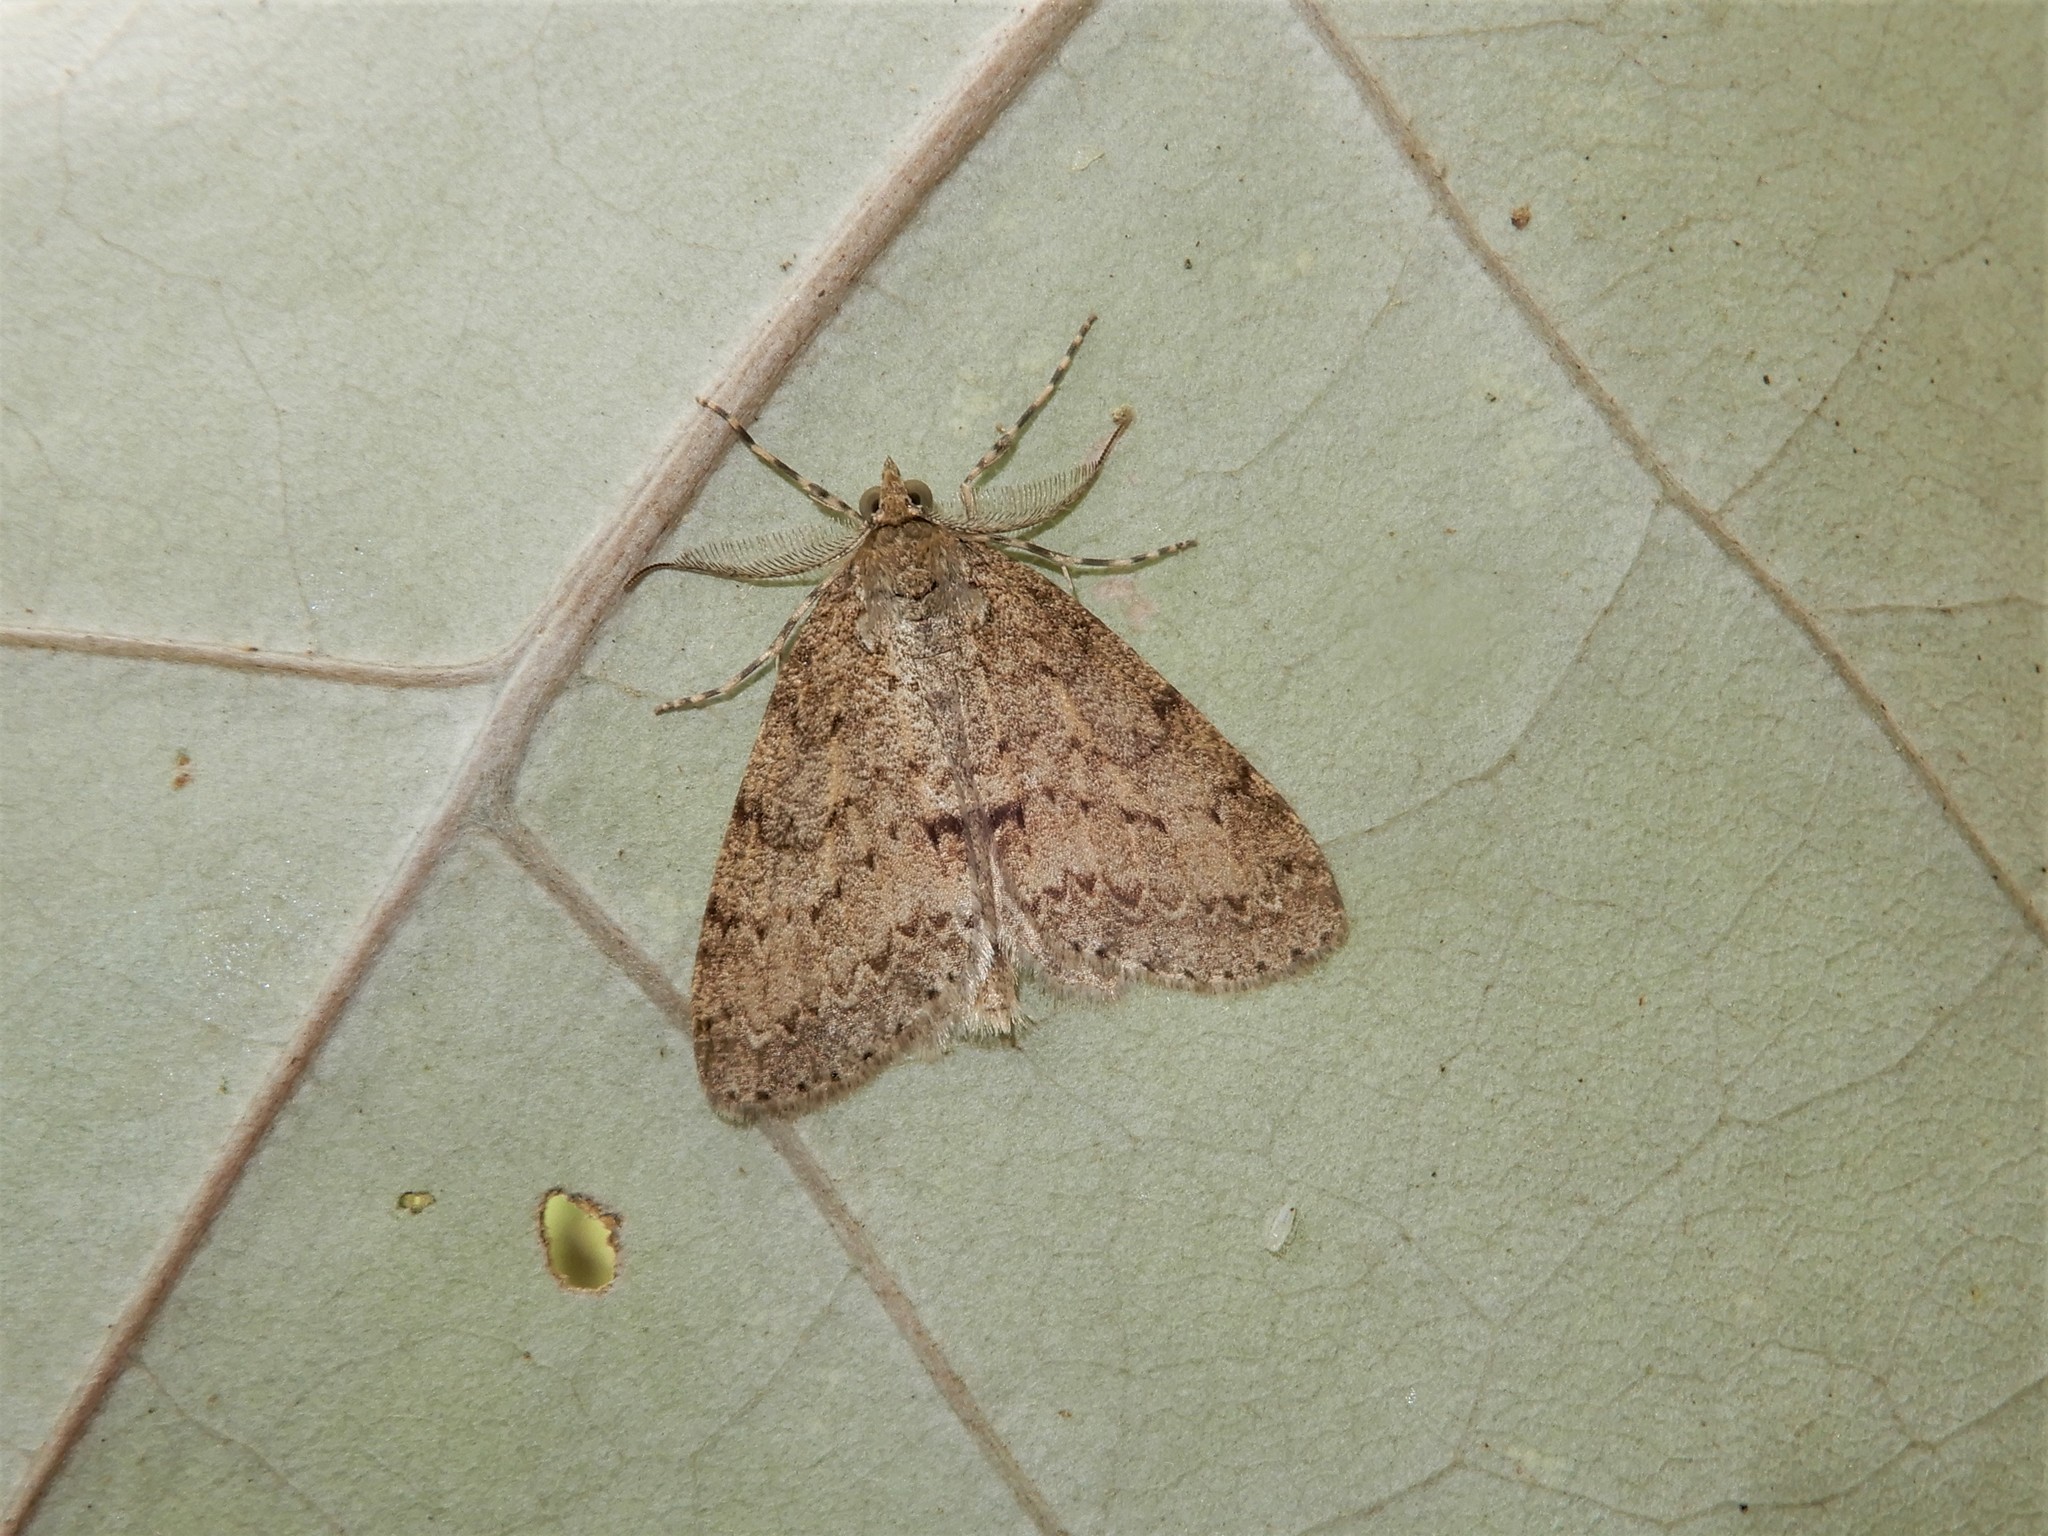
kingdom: Animalia
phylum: Arthropoda
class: Insecta
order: Lepidoptera
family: Geometridae
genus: Pseudocoremia
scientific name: Pseudocoremia fenerata
